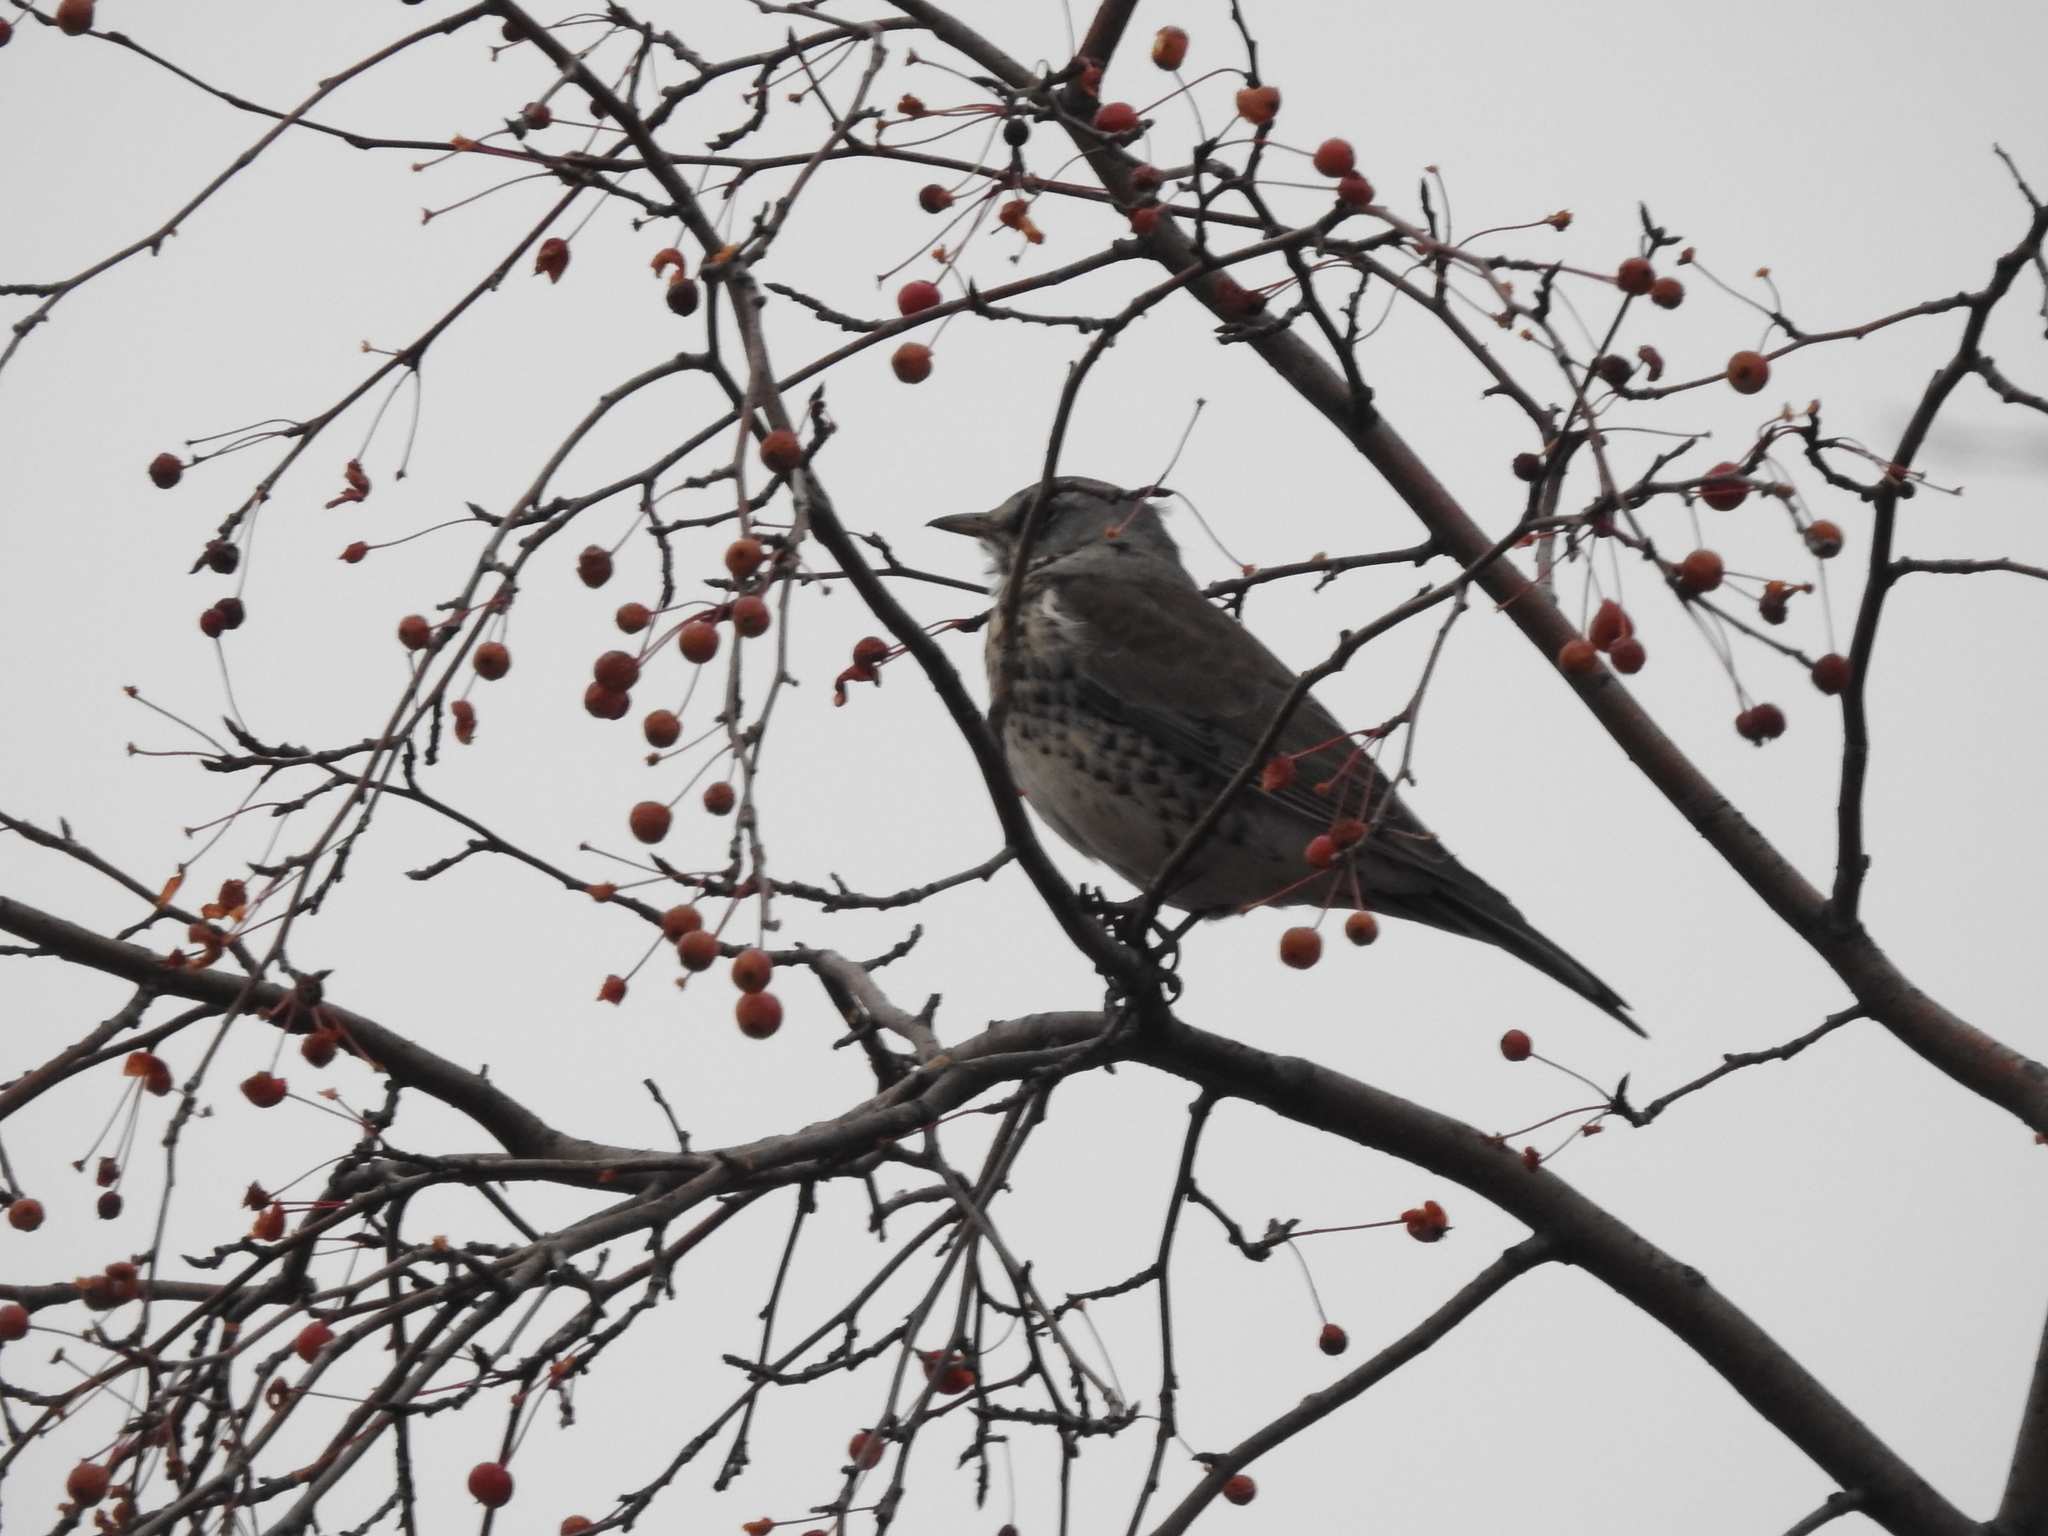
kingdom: Animalia
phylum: Chordata
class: Aves
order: Passeriformes
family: Turdidae
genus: Turdus
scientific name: Turdus pilaris
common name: Fieldfare
